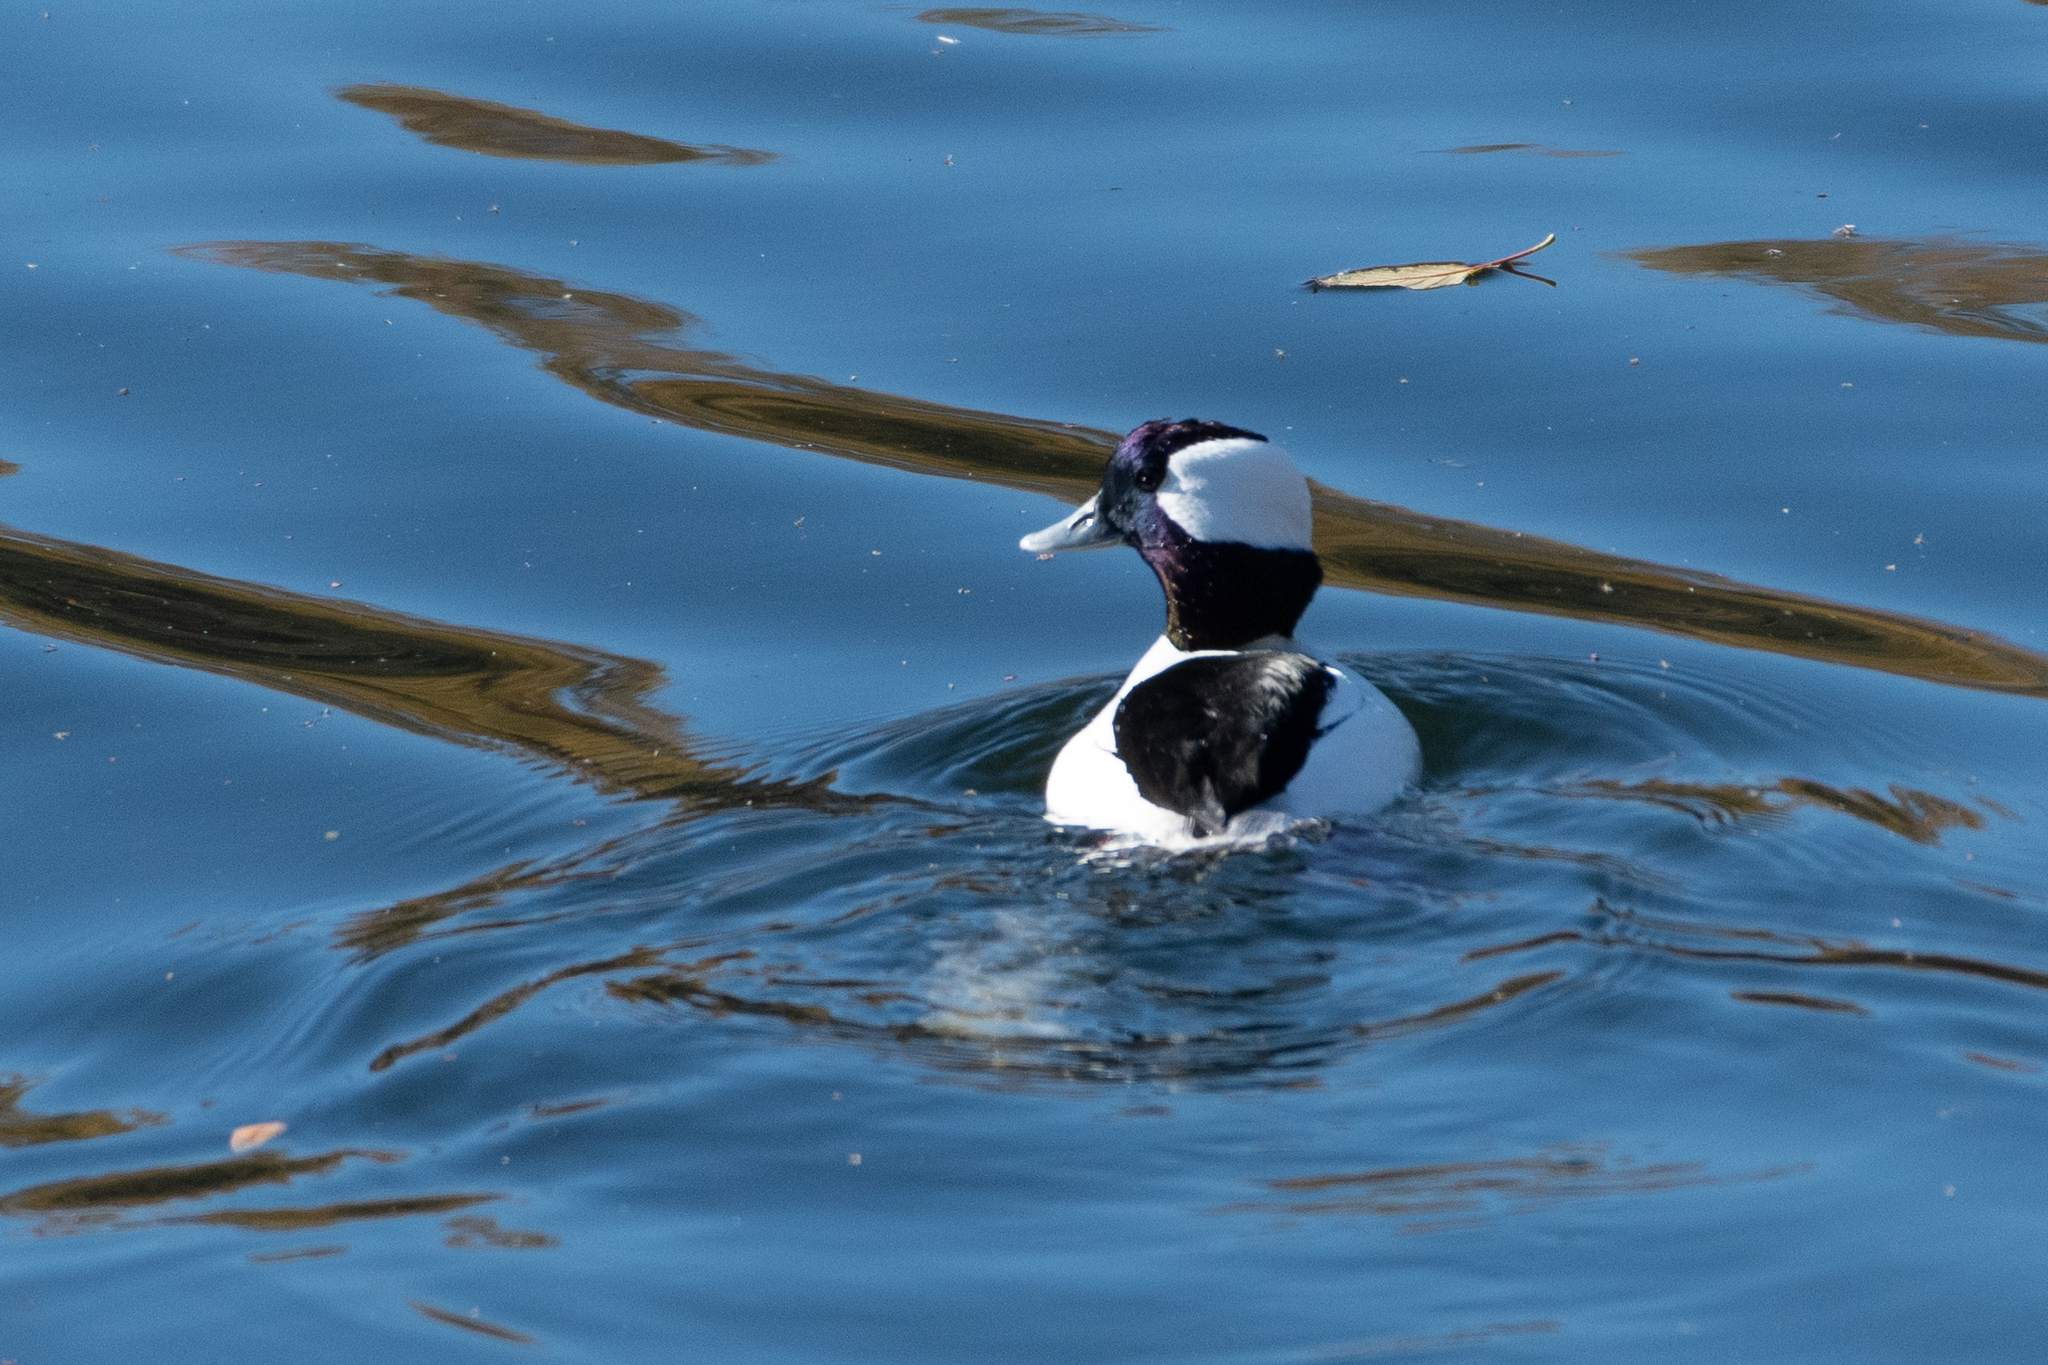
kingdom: Animalia
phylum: Chordata
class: Aves
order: Anseriformes
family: Anatidae
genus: Bucephala
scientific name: Bucephala albeola
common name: Bufflehead
